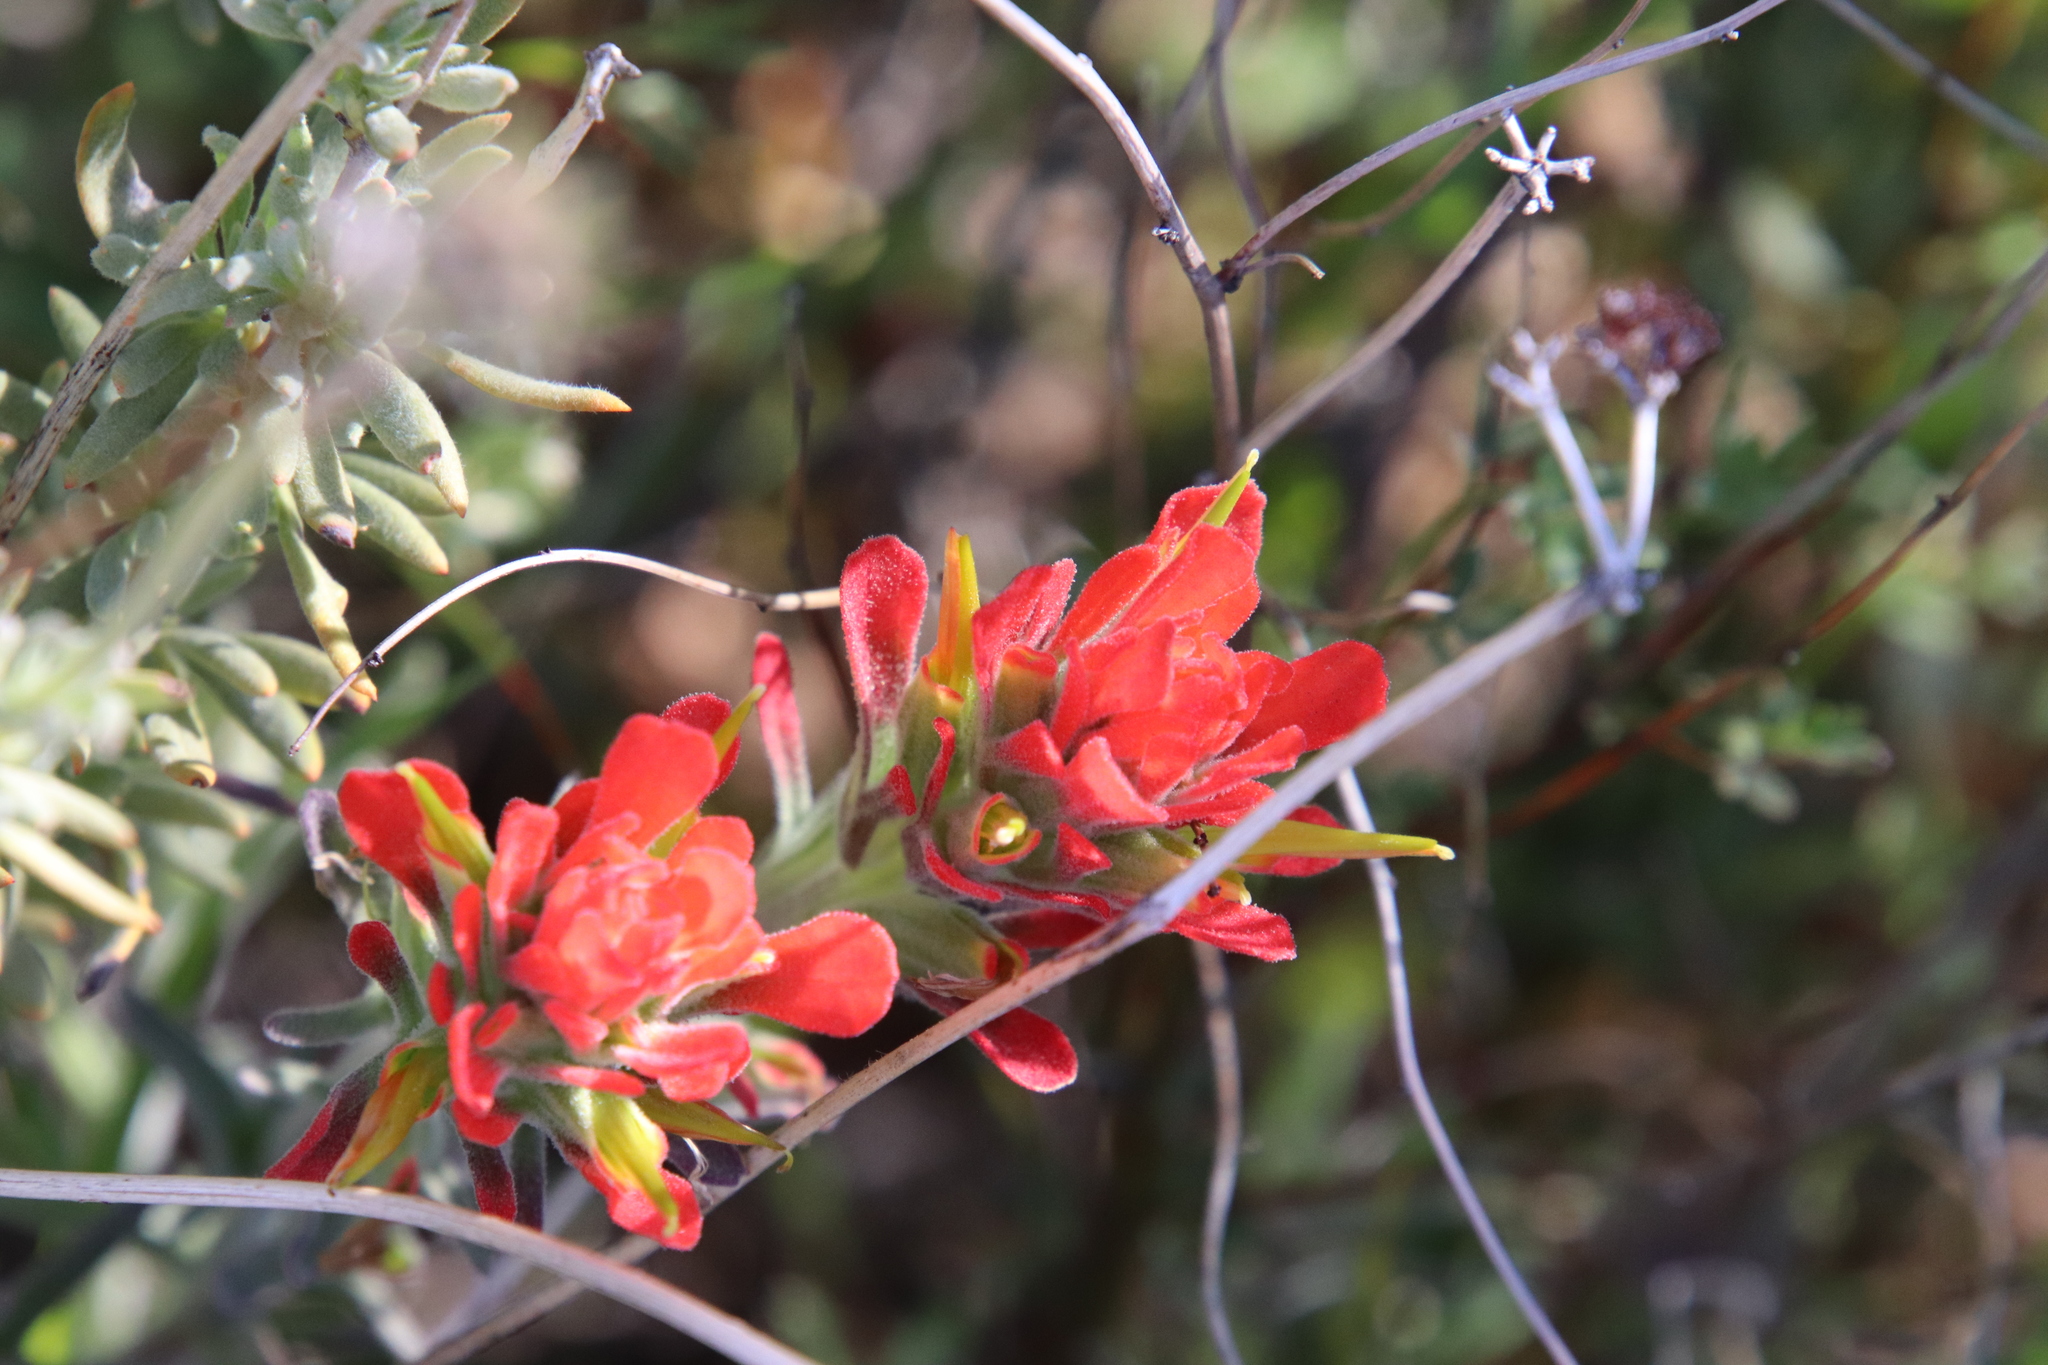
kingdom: Plantae
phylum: Tracheophyta
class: Magnoliopsida
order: Lamiales
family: Orobanchaceae
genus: Castilleja
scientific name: Castilleja foliolosa
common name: Woolly indian paintbrush
